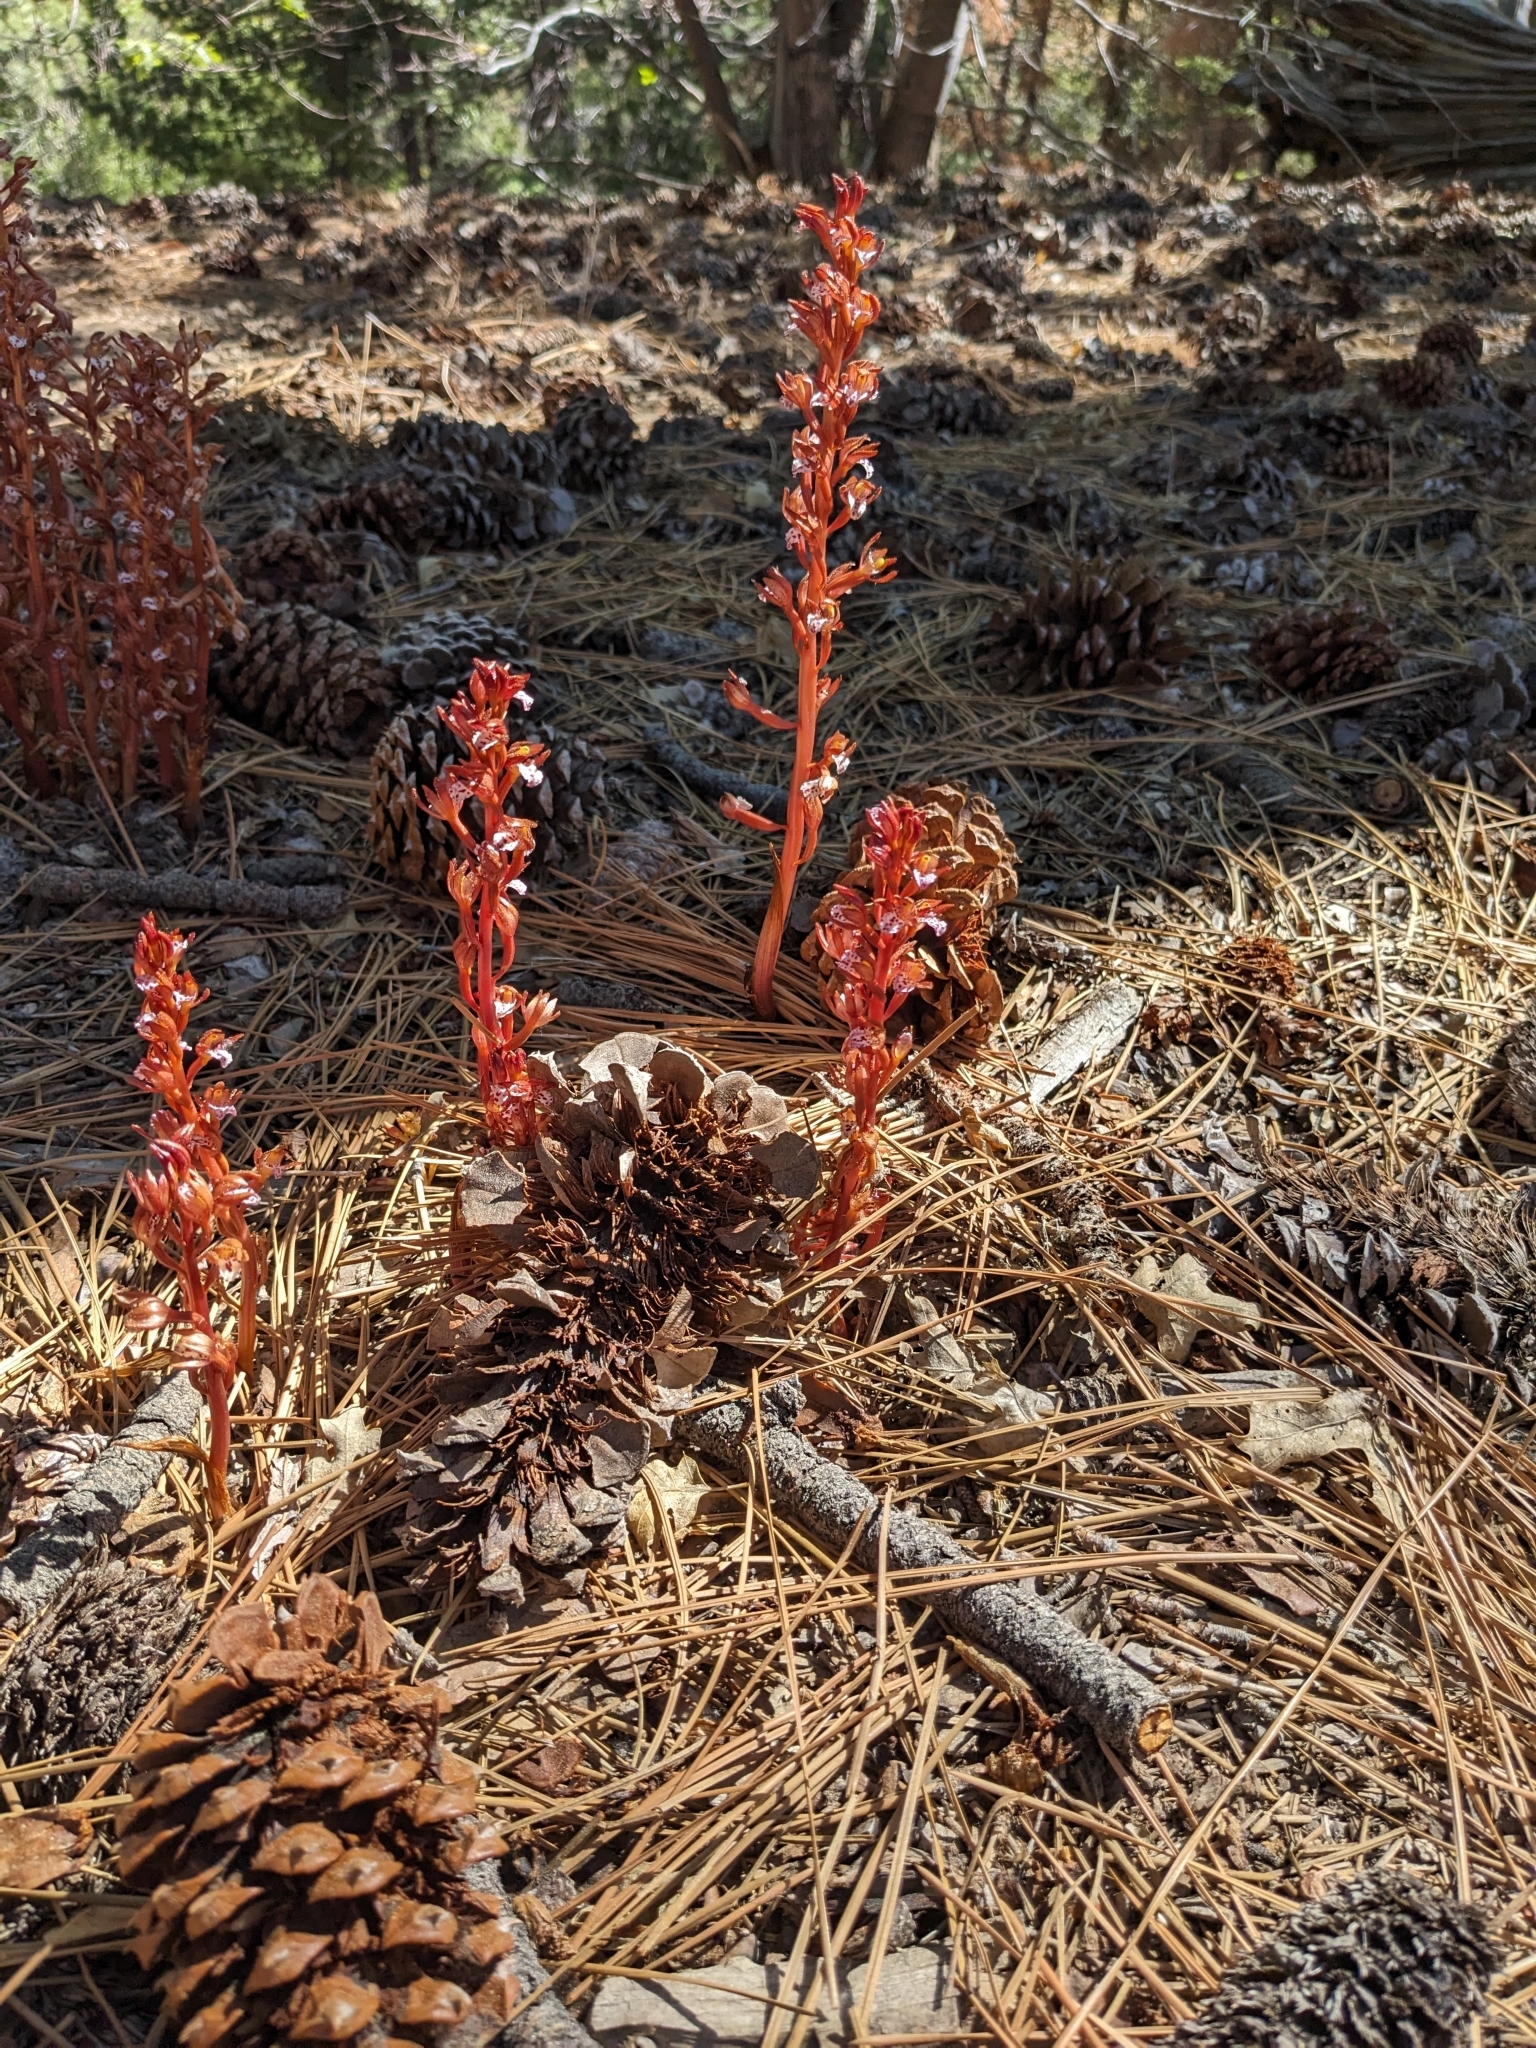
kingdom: Plantae
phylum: Tracheophyta
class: Liliopsida
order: Asparagales
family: Orchidaceae
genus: Corallorhiza
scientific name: Corallorhiza maculata
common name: Spotted coralroot
